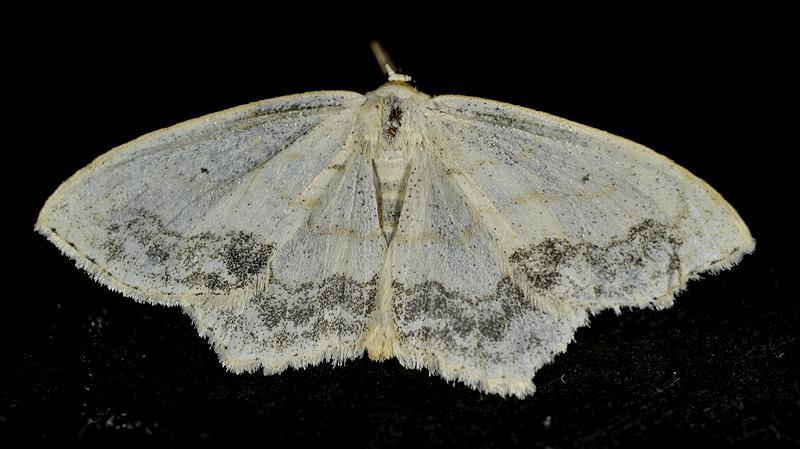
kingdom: Animalia
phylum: Arthropoda
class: Insecta
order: Lepidoptera
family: Geometridae
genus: Scopula
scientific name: Scopula limboundata
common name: Large lace border
